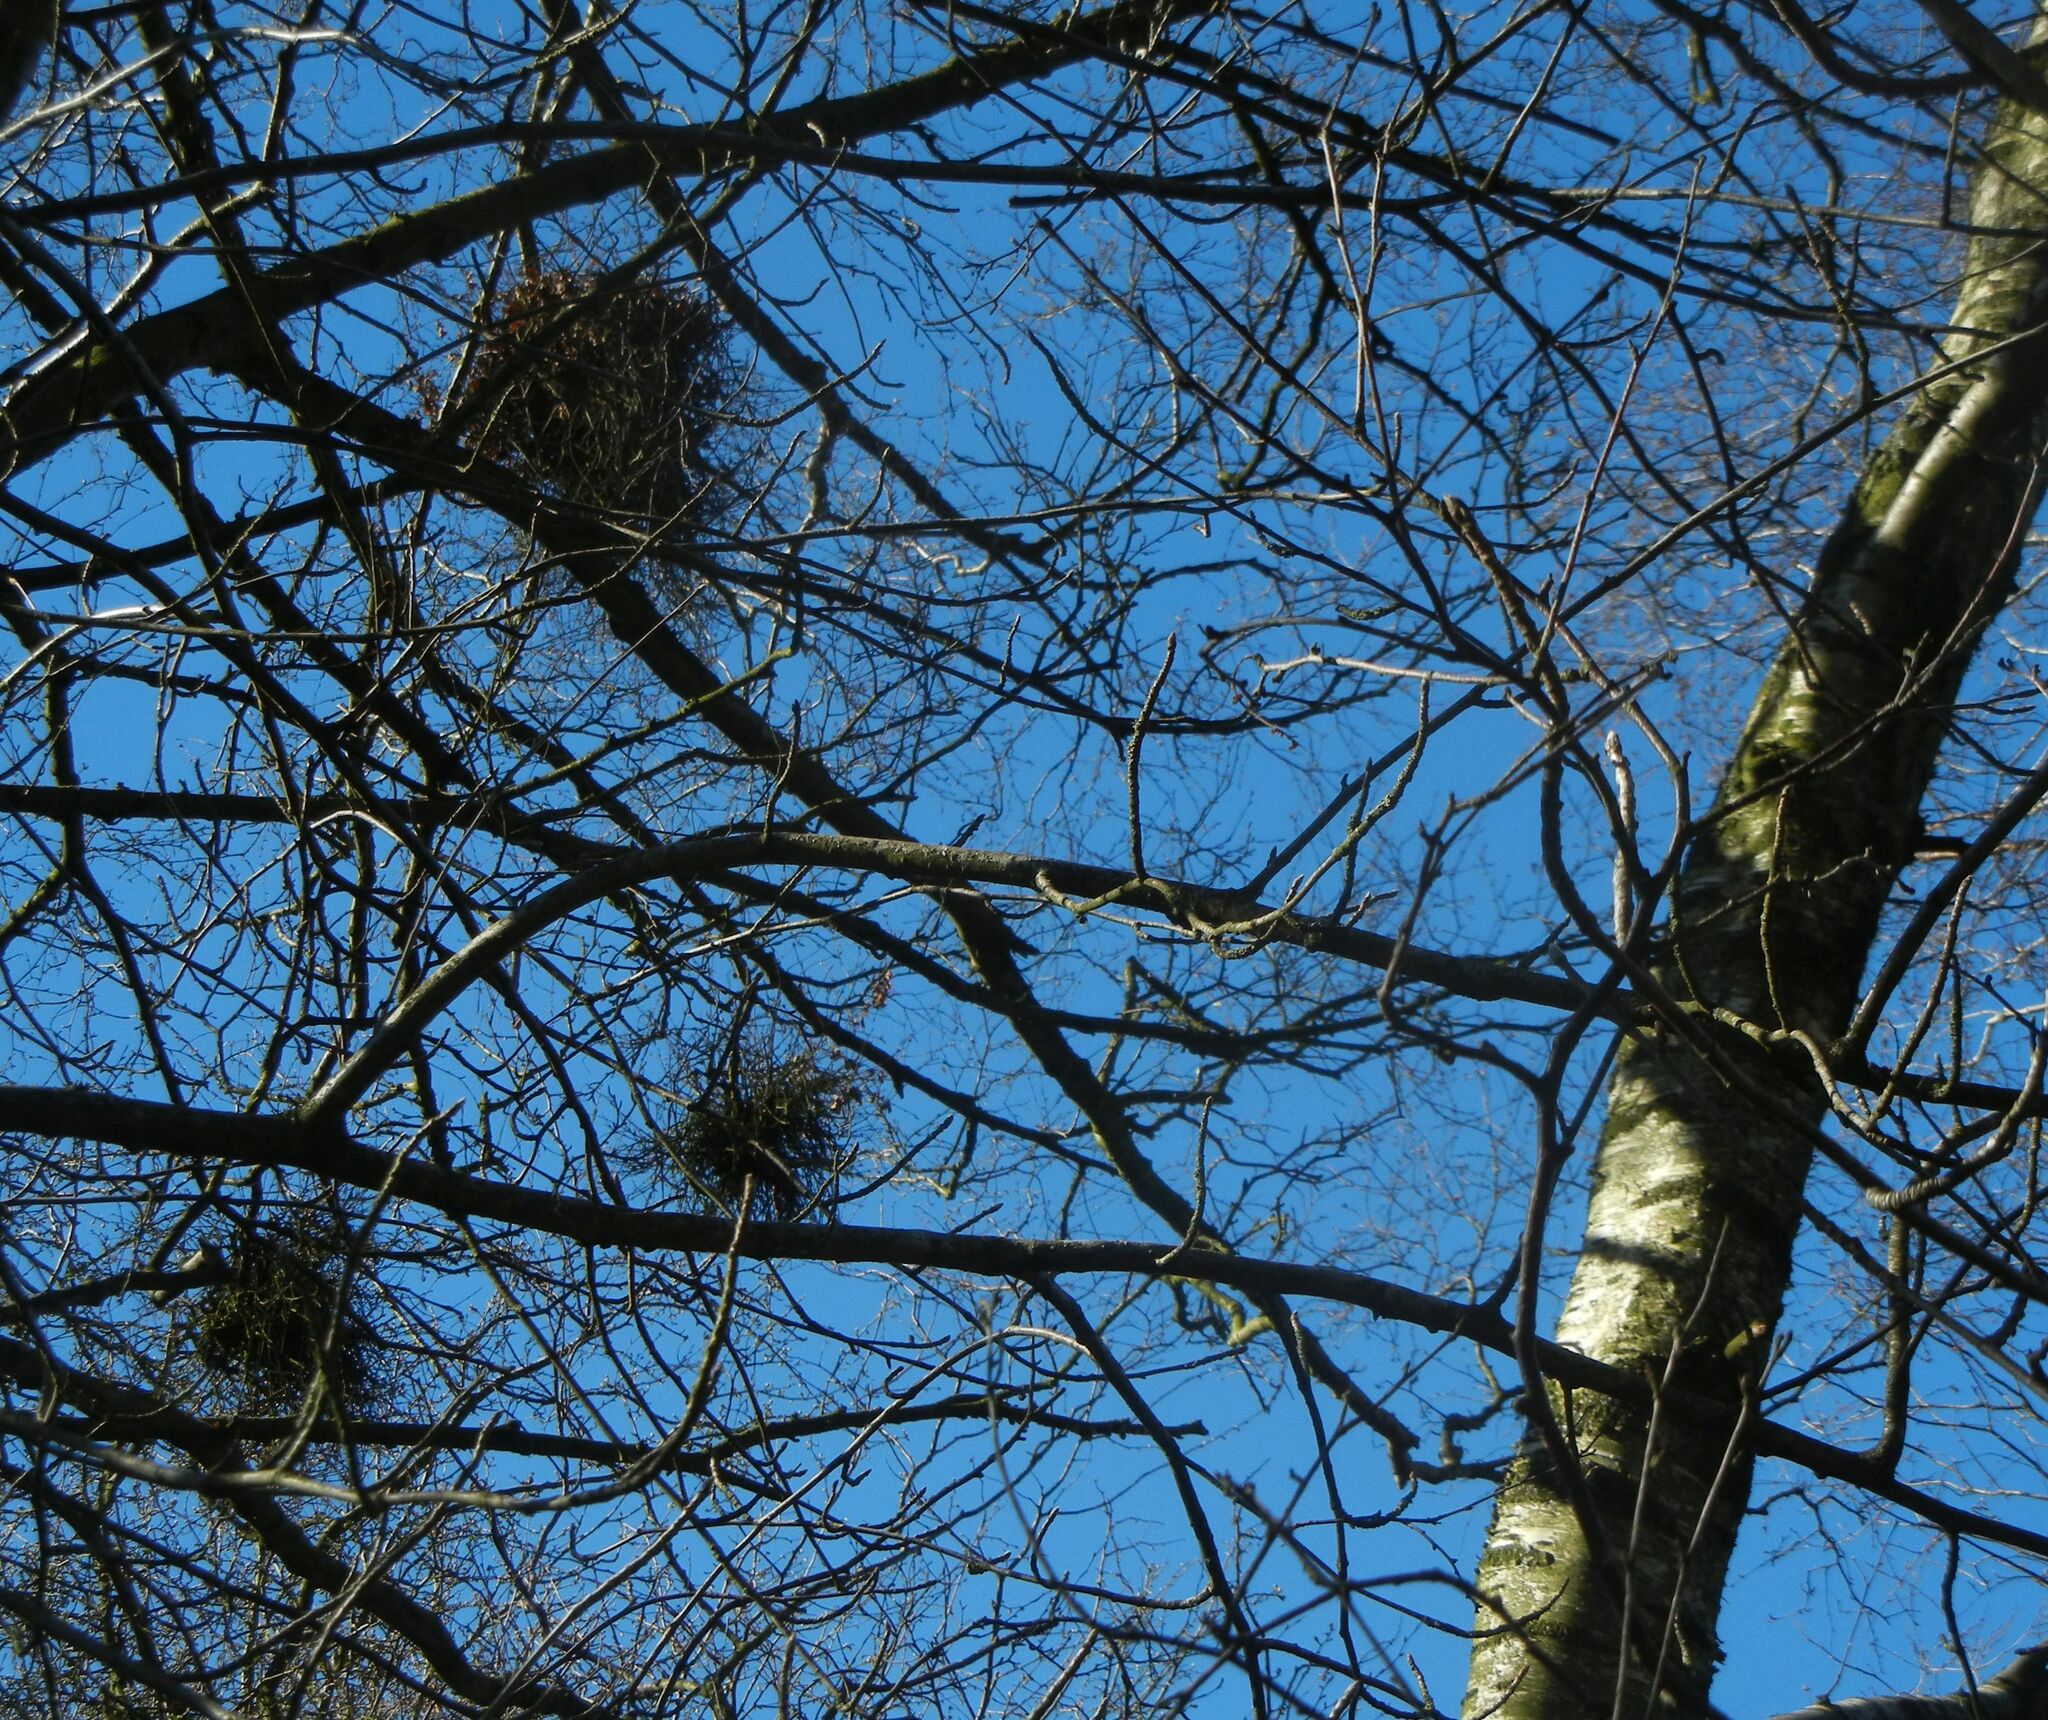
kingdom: Fungi
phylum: Ascomycota
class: Taphrinomycetes
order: Taphrinales
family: Taphrinaceae
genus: Taphrina
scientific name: Taphrina betulina
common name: Birch besom
